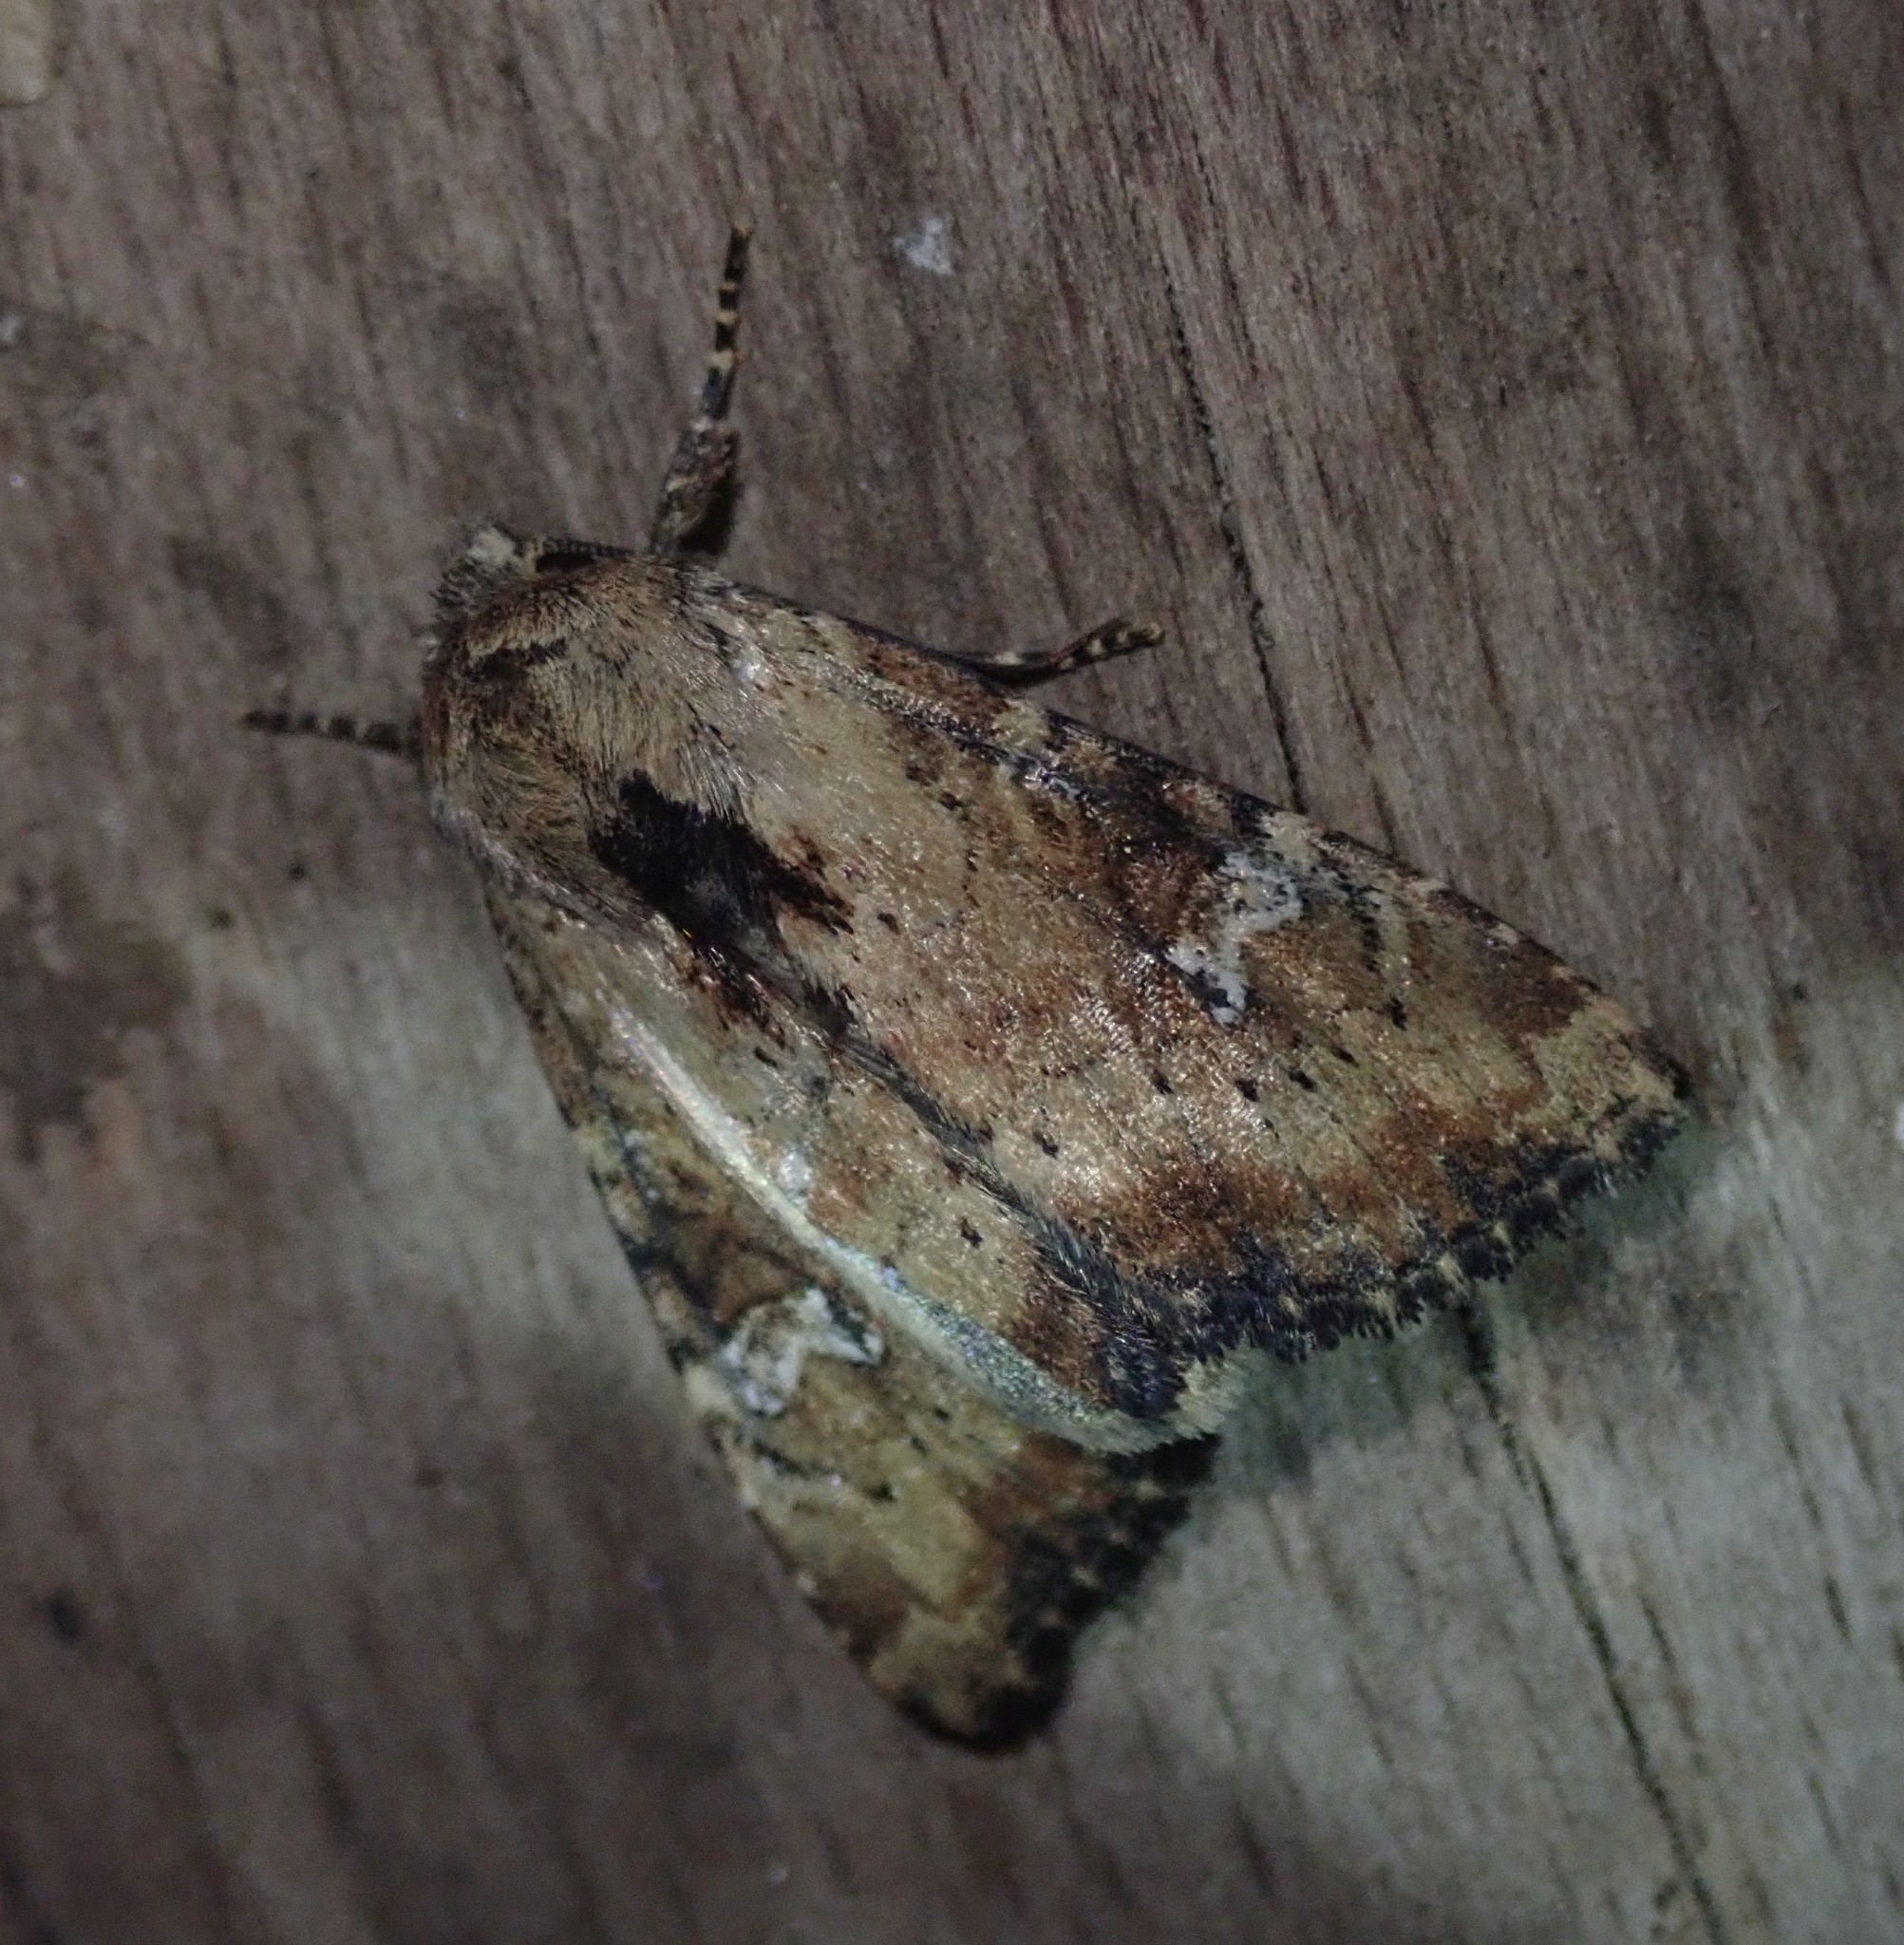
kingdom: Animalia
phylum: Arthropoda
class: Insecta
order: Lepidoptera
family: Noctuidae
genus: Loscopia
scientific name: Loscopia scolopacina
